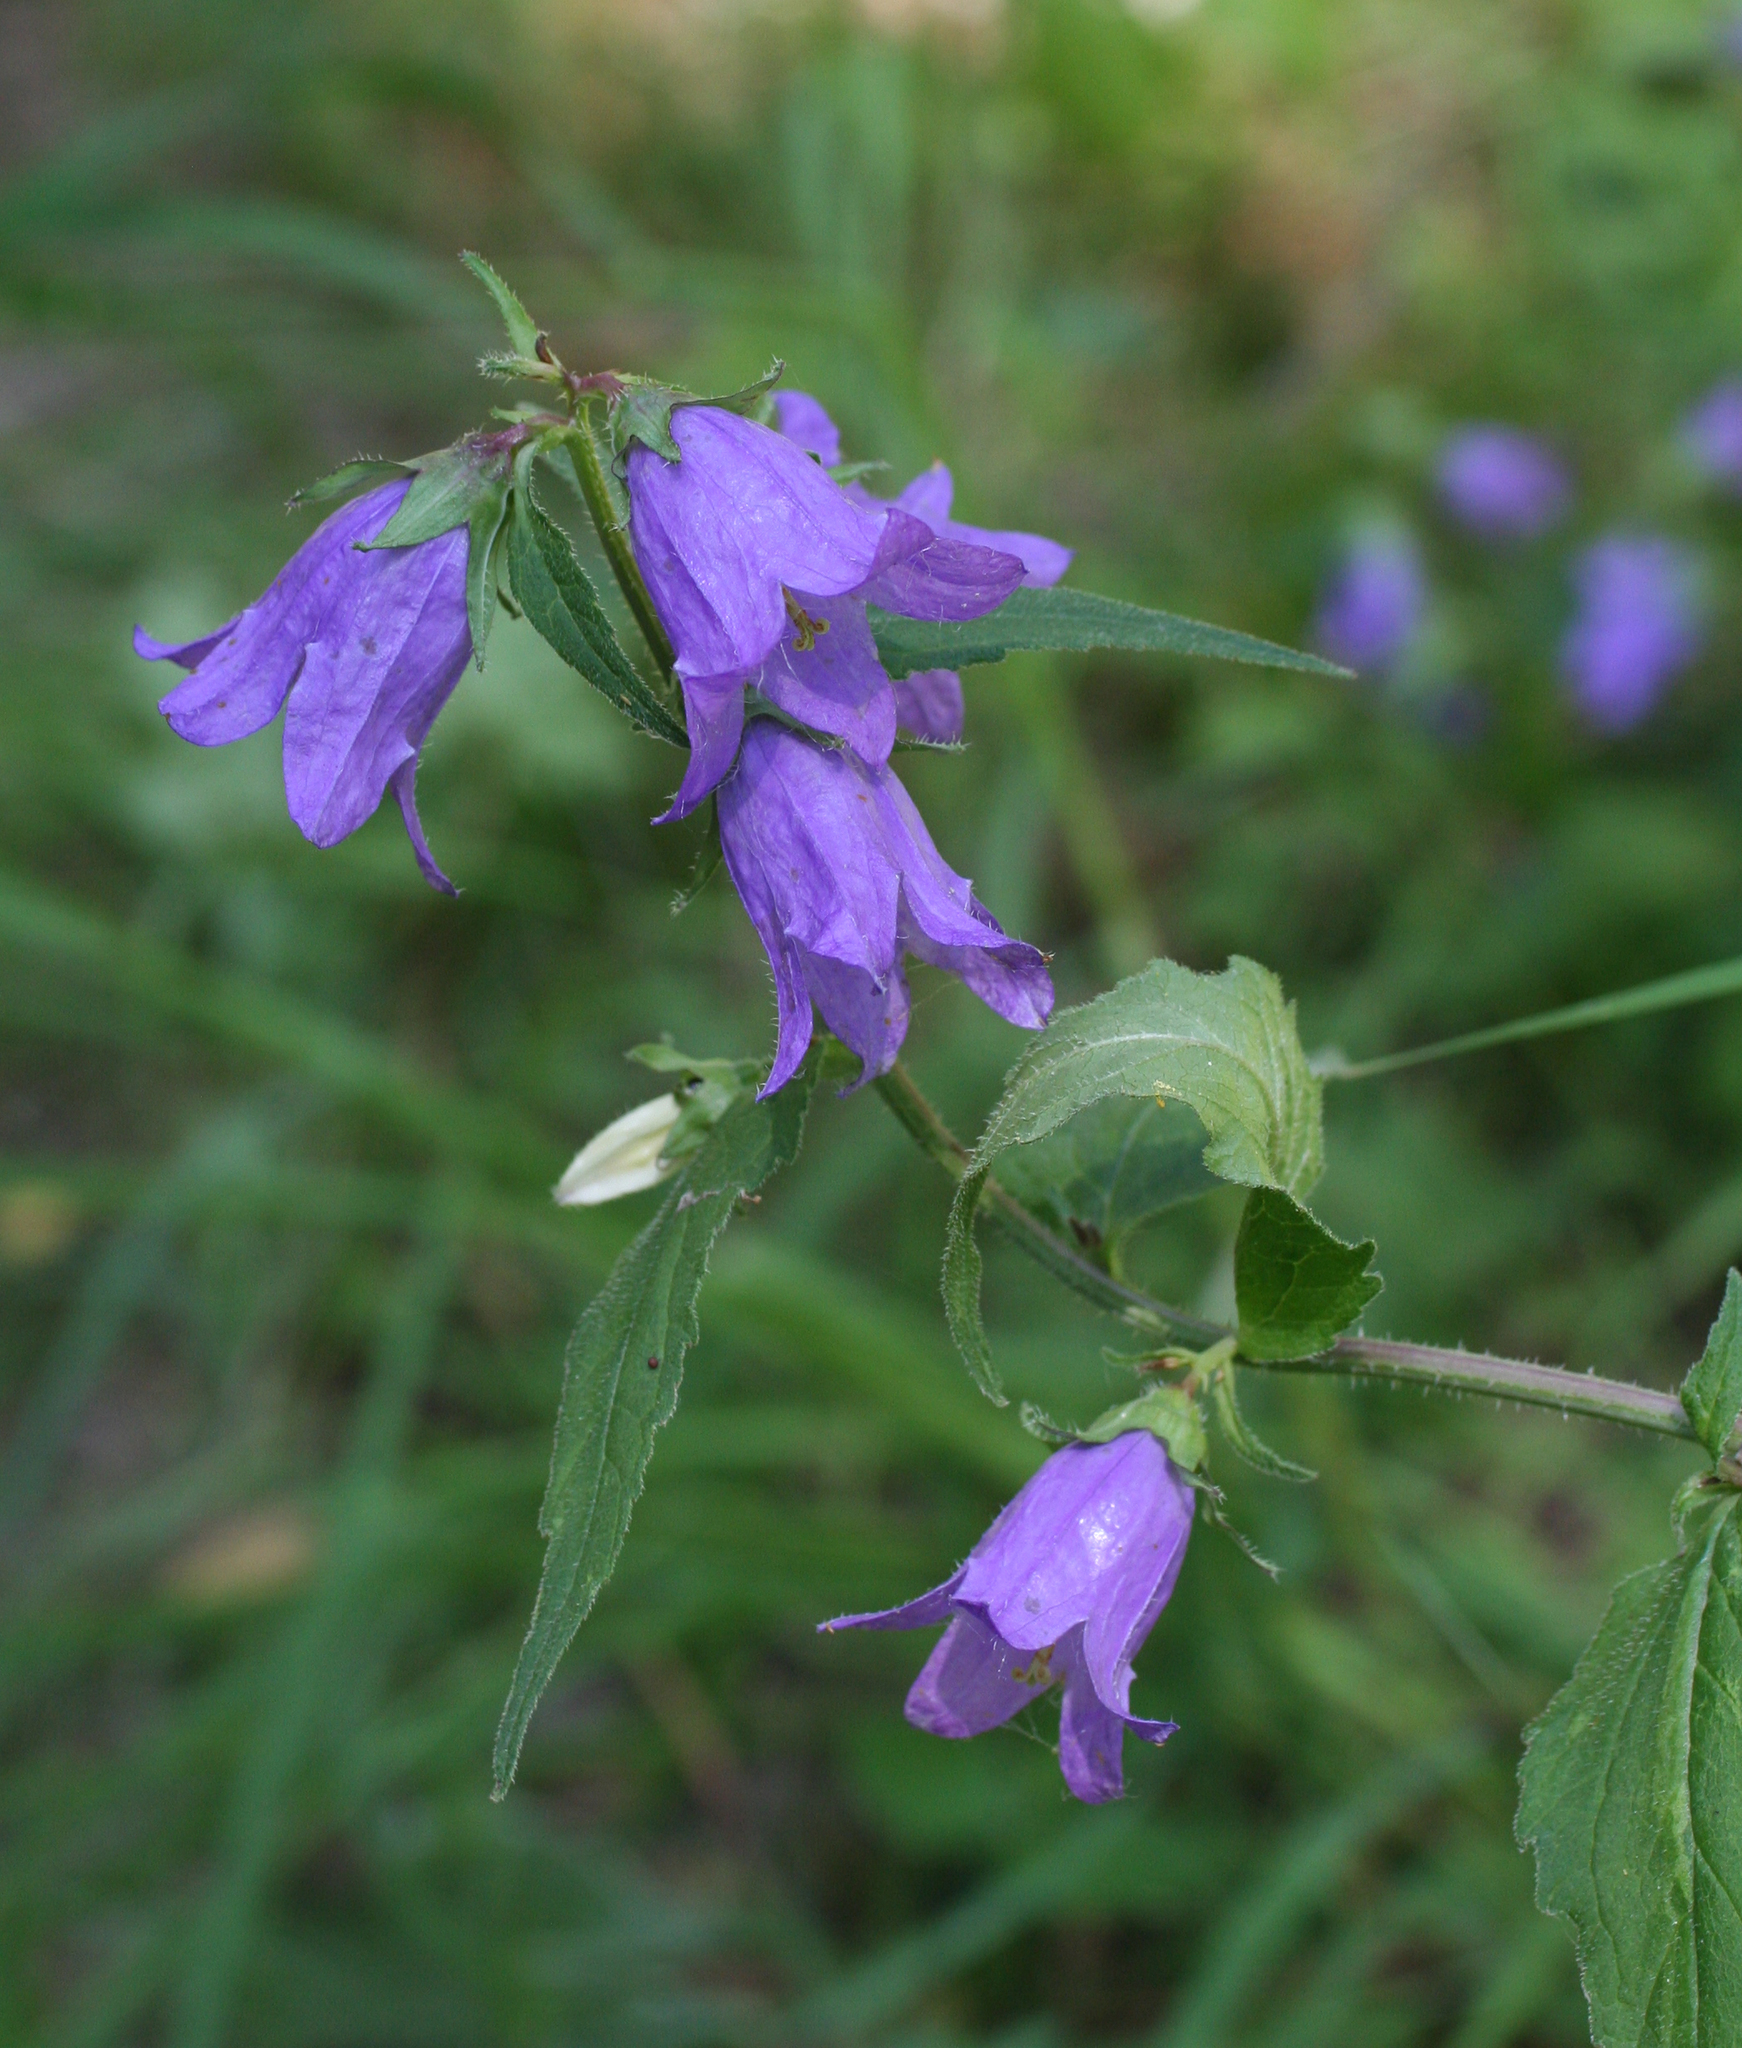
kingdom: Plantae
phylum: Tracheophyta
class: Magnoliopsida
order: Asterales
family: Campanulaceae
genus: Campanula
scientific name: Campanula trachelium
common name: Nettle-leaved bellflower
